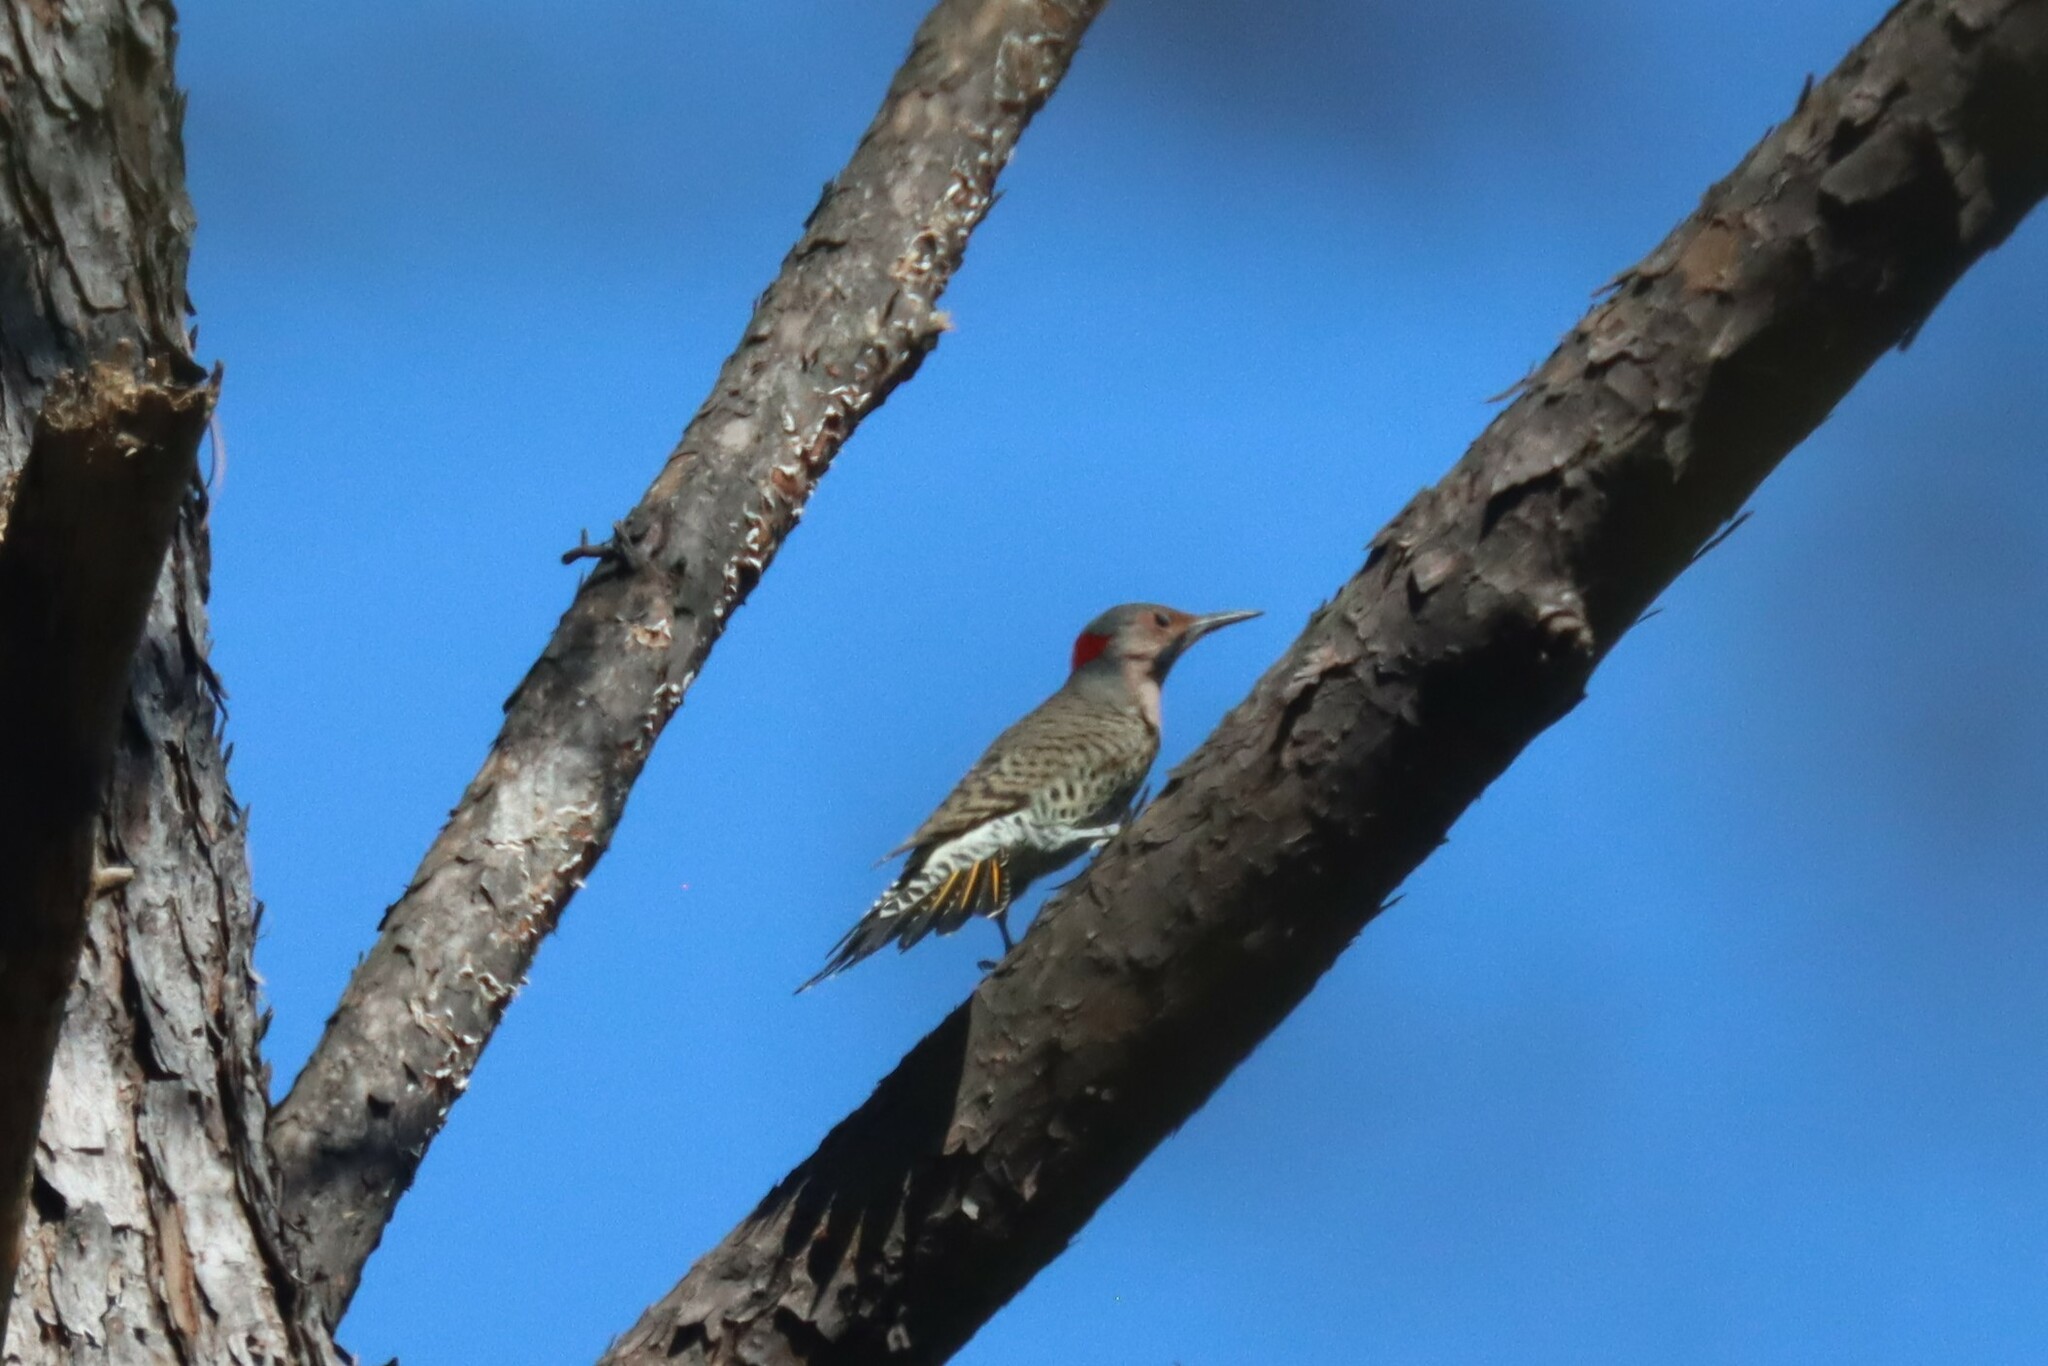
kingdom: Animalia
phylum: Chordata
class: Aves
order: Piciformes
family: Picidae
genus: Colaptes
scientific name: Colaptes auratus
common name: Northern flicker
